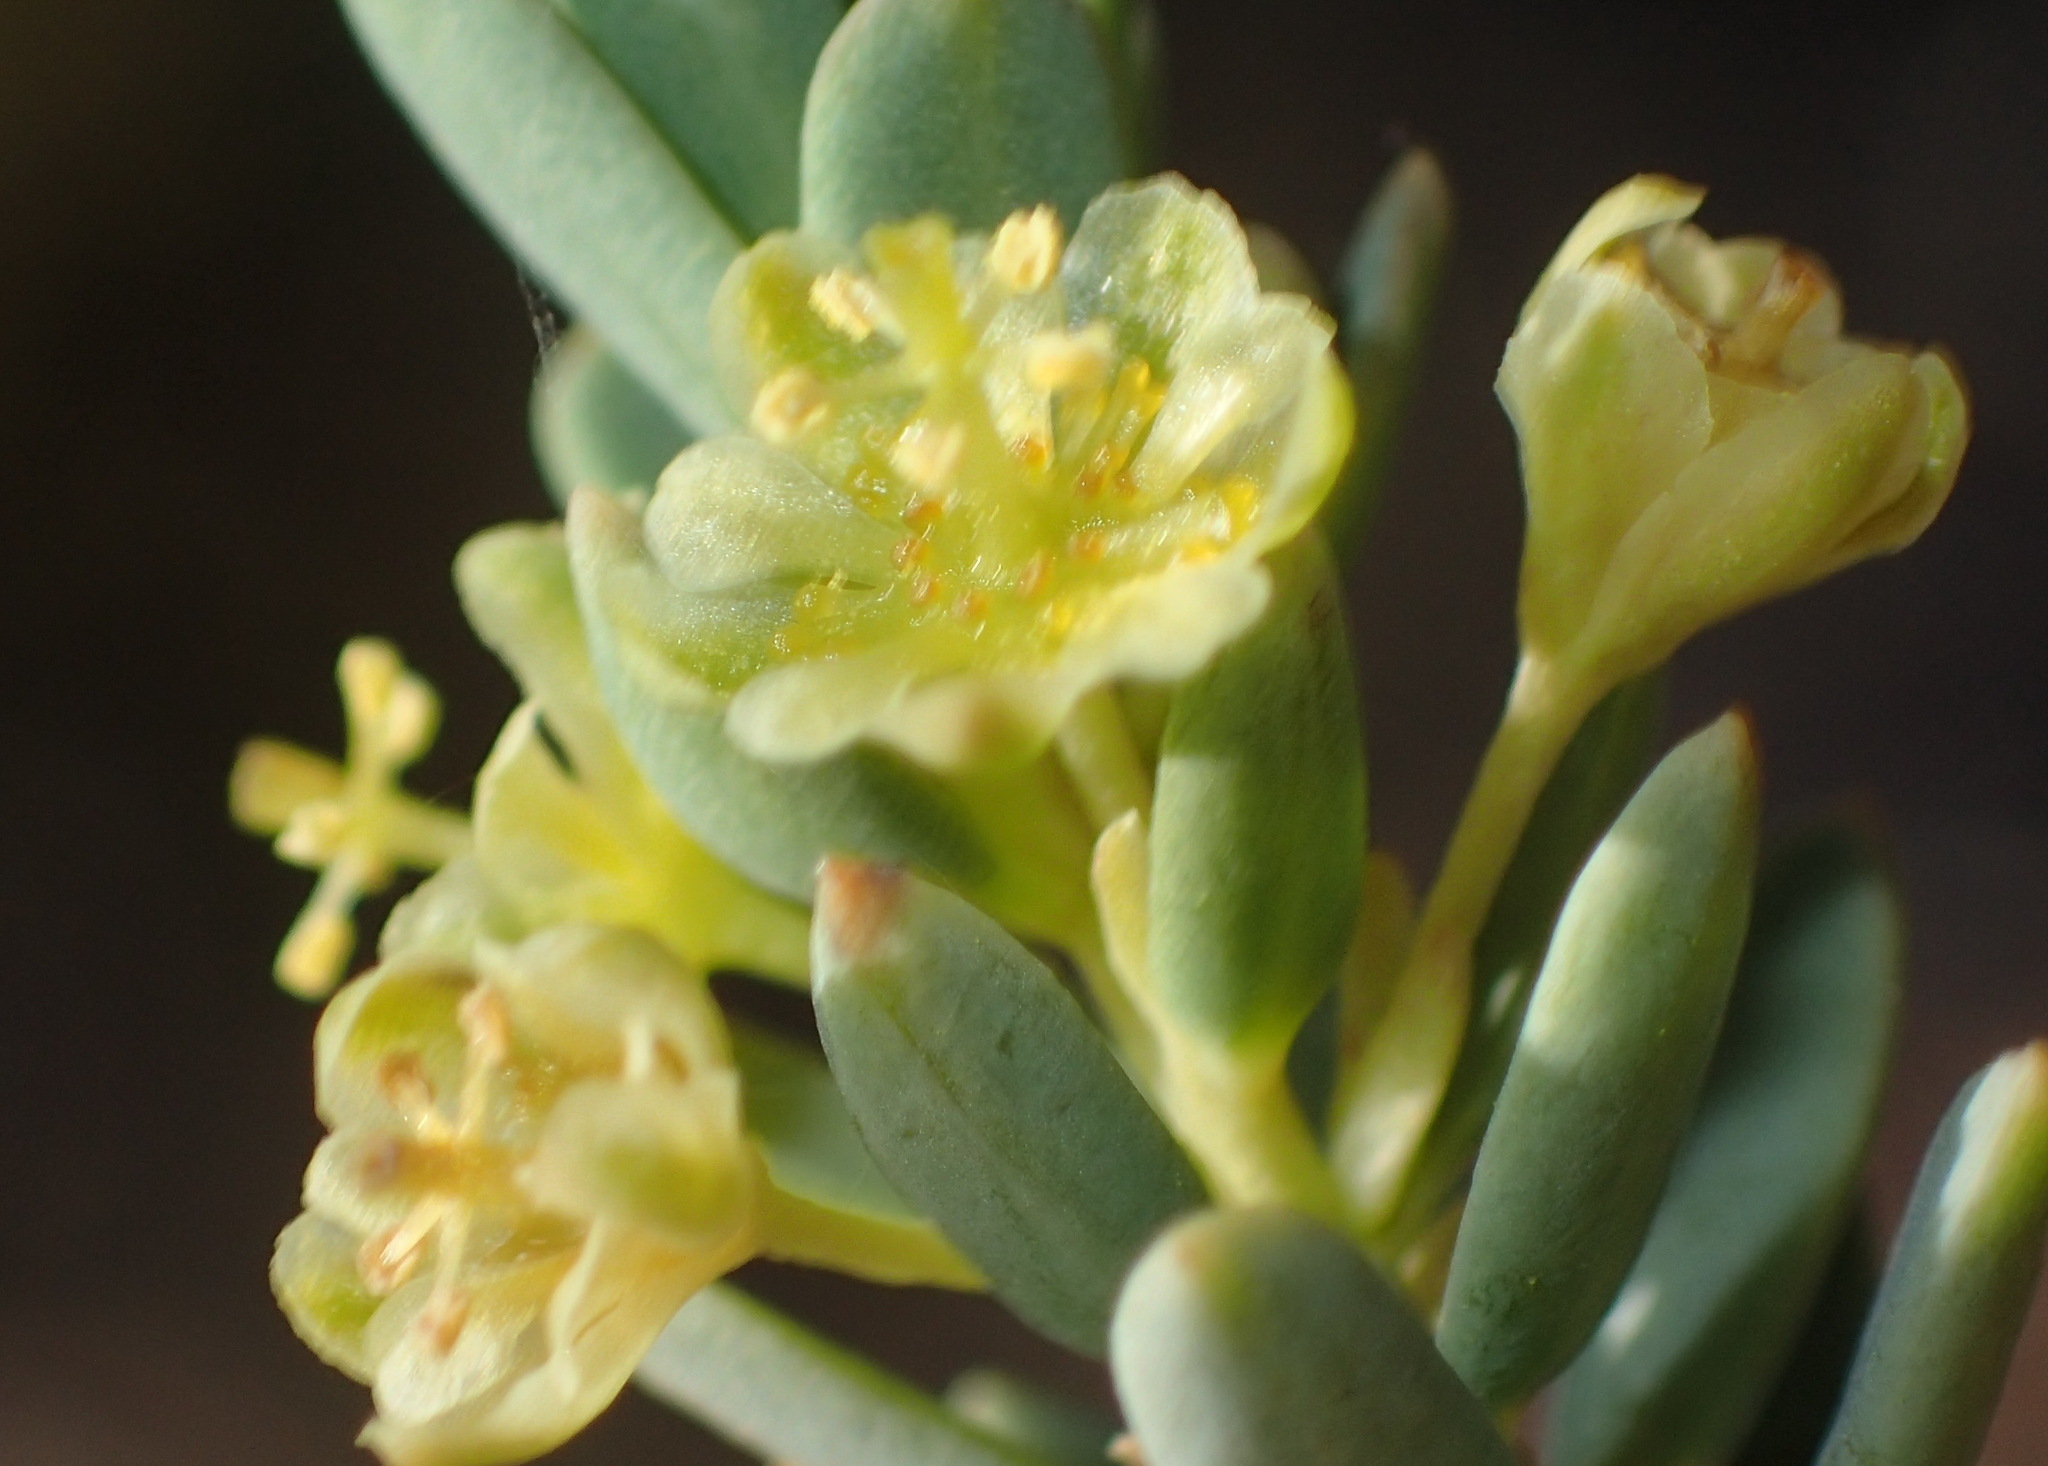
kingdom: Plantae
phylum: Tracheophyta
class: Magnoliopsida
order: Malpighiales
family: Peraceae
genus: Clutia
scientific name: Clutia laxa
